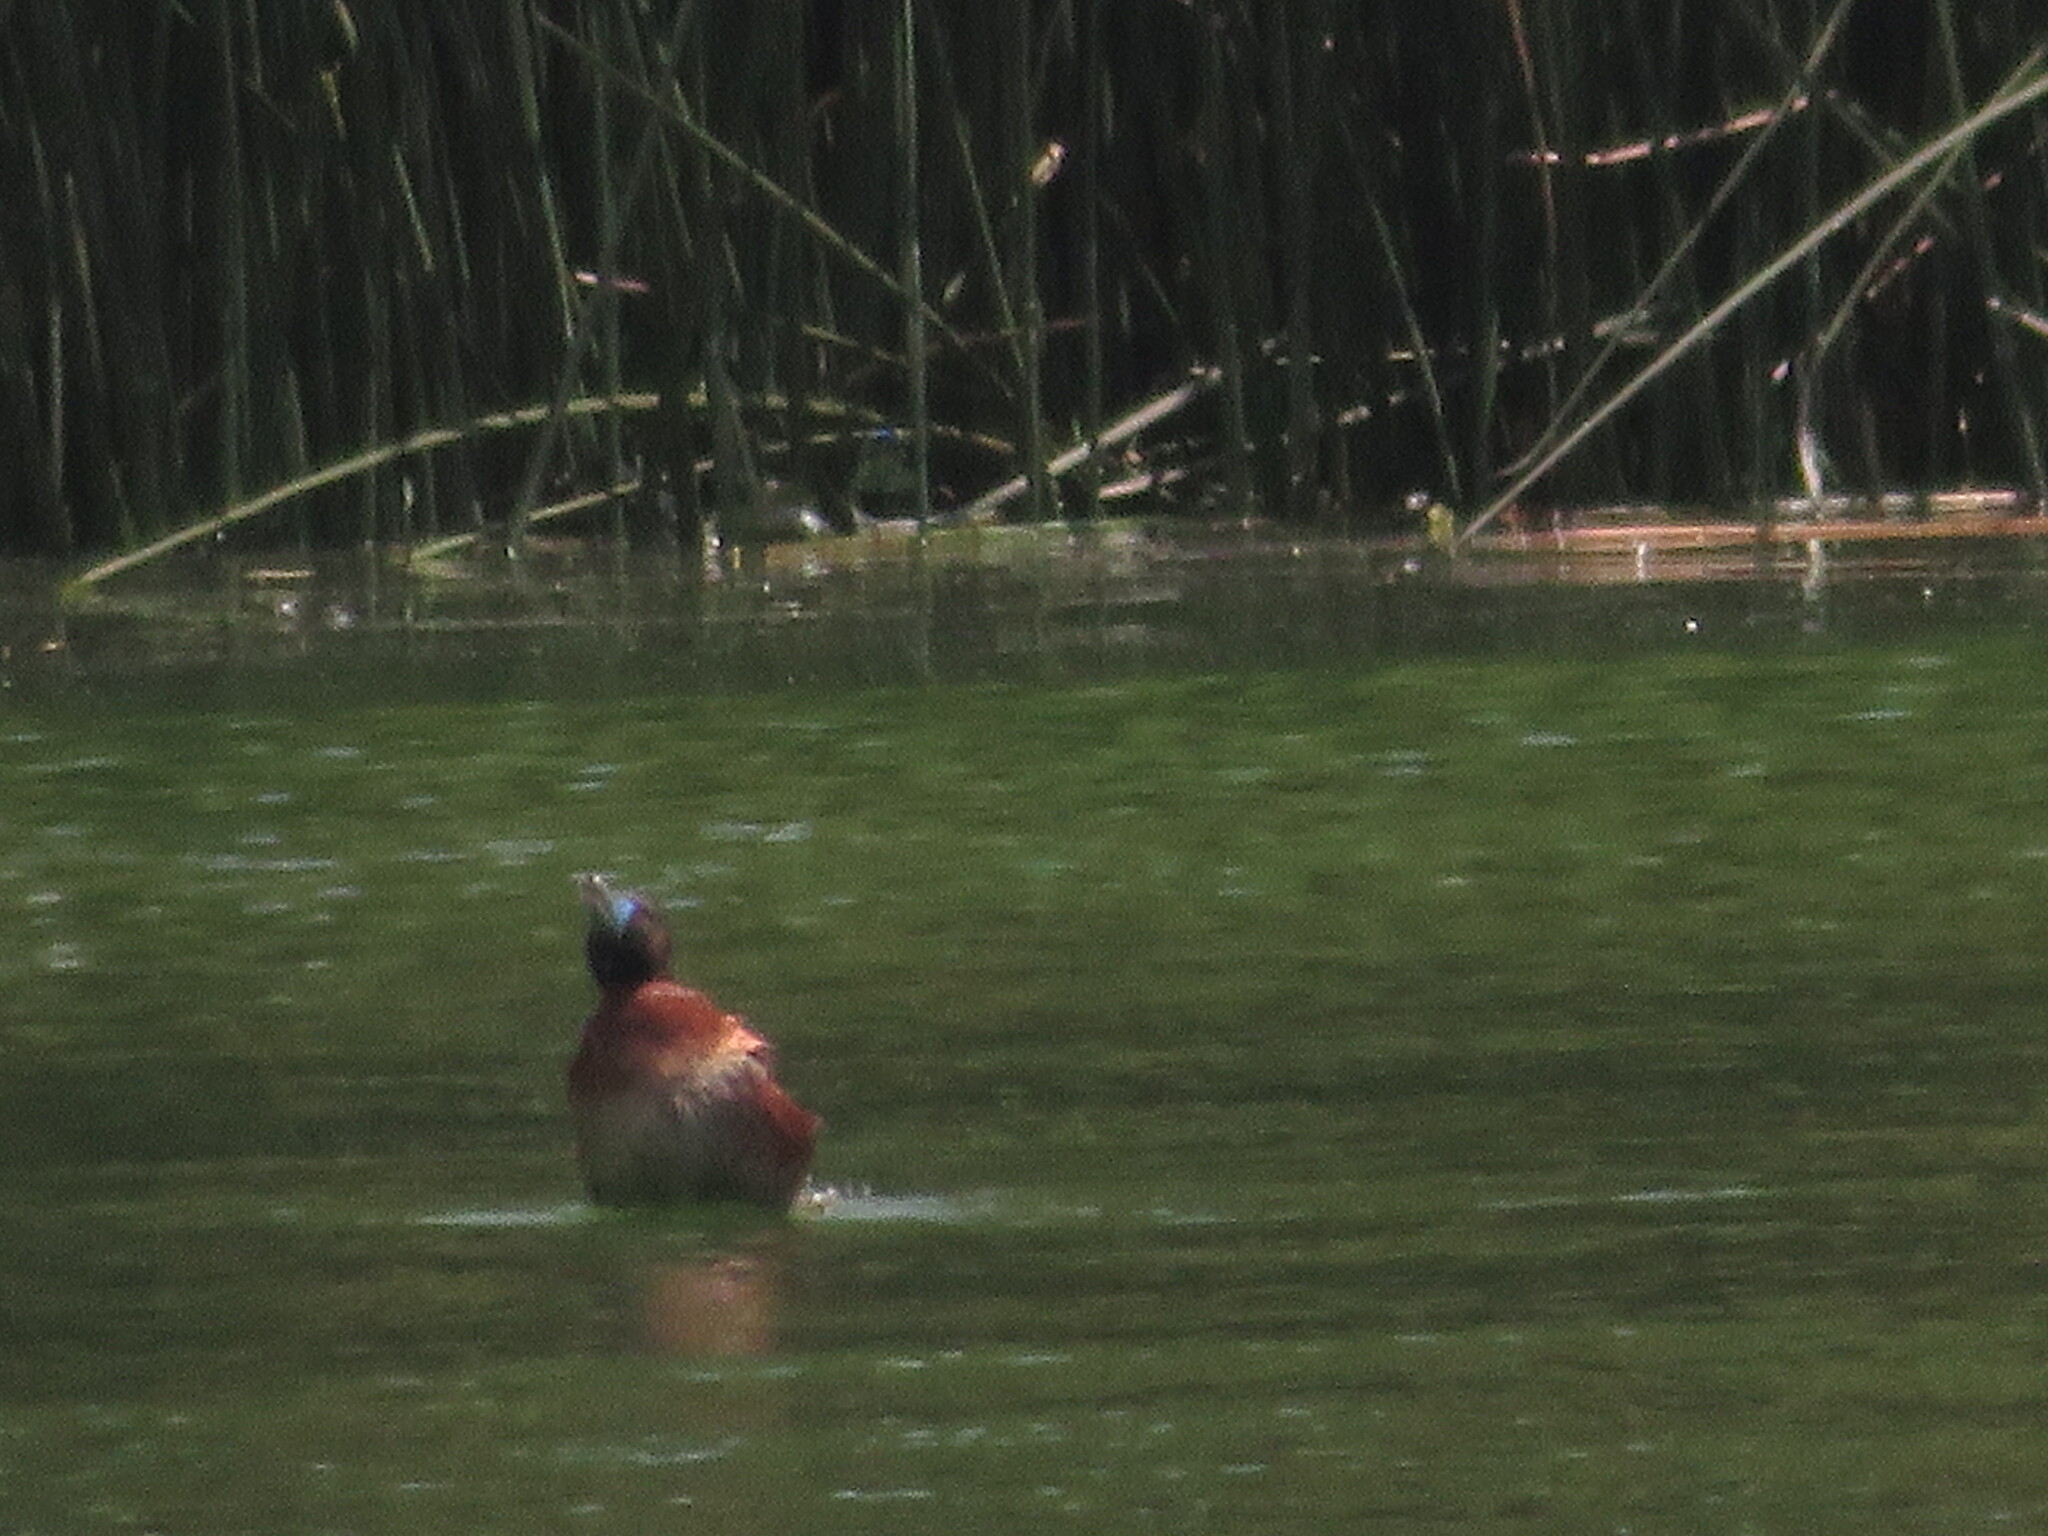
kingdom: Animalia
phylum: Chordata
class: Aves
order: Anseriformes
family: Anatidae
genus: Oxyura
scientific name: Oxyura vittata
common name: Lake duck
